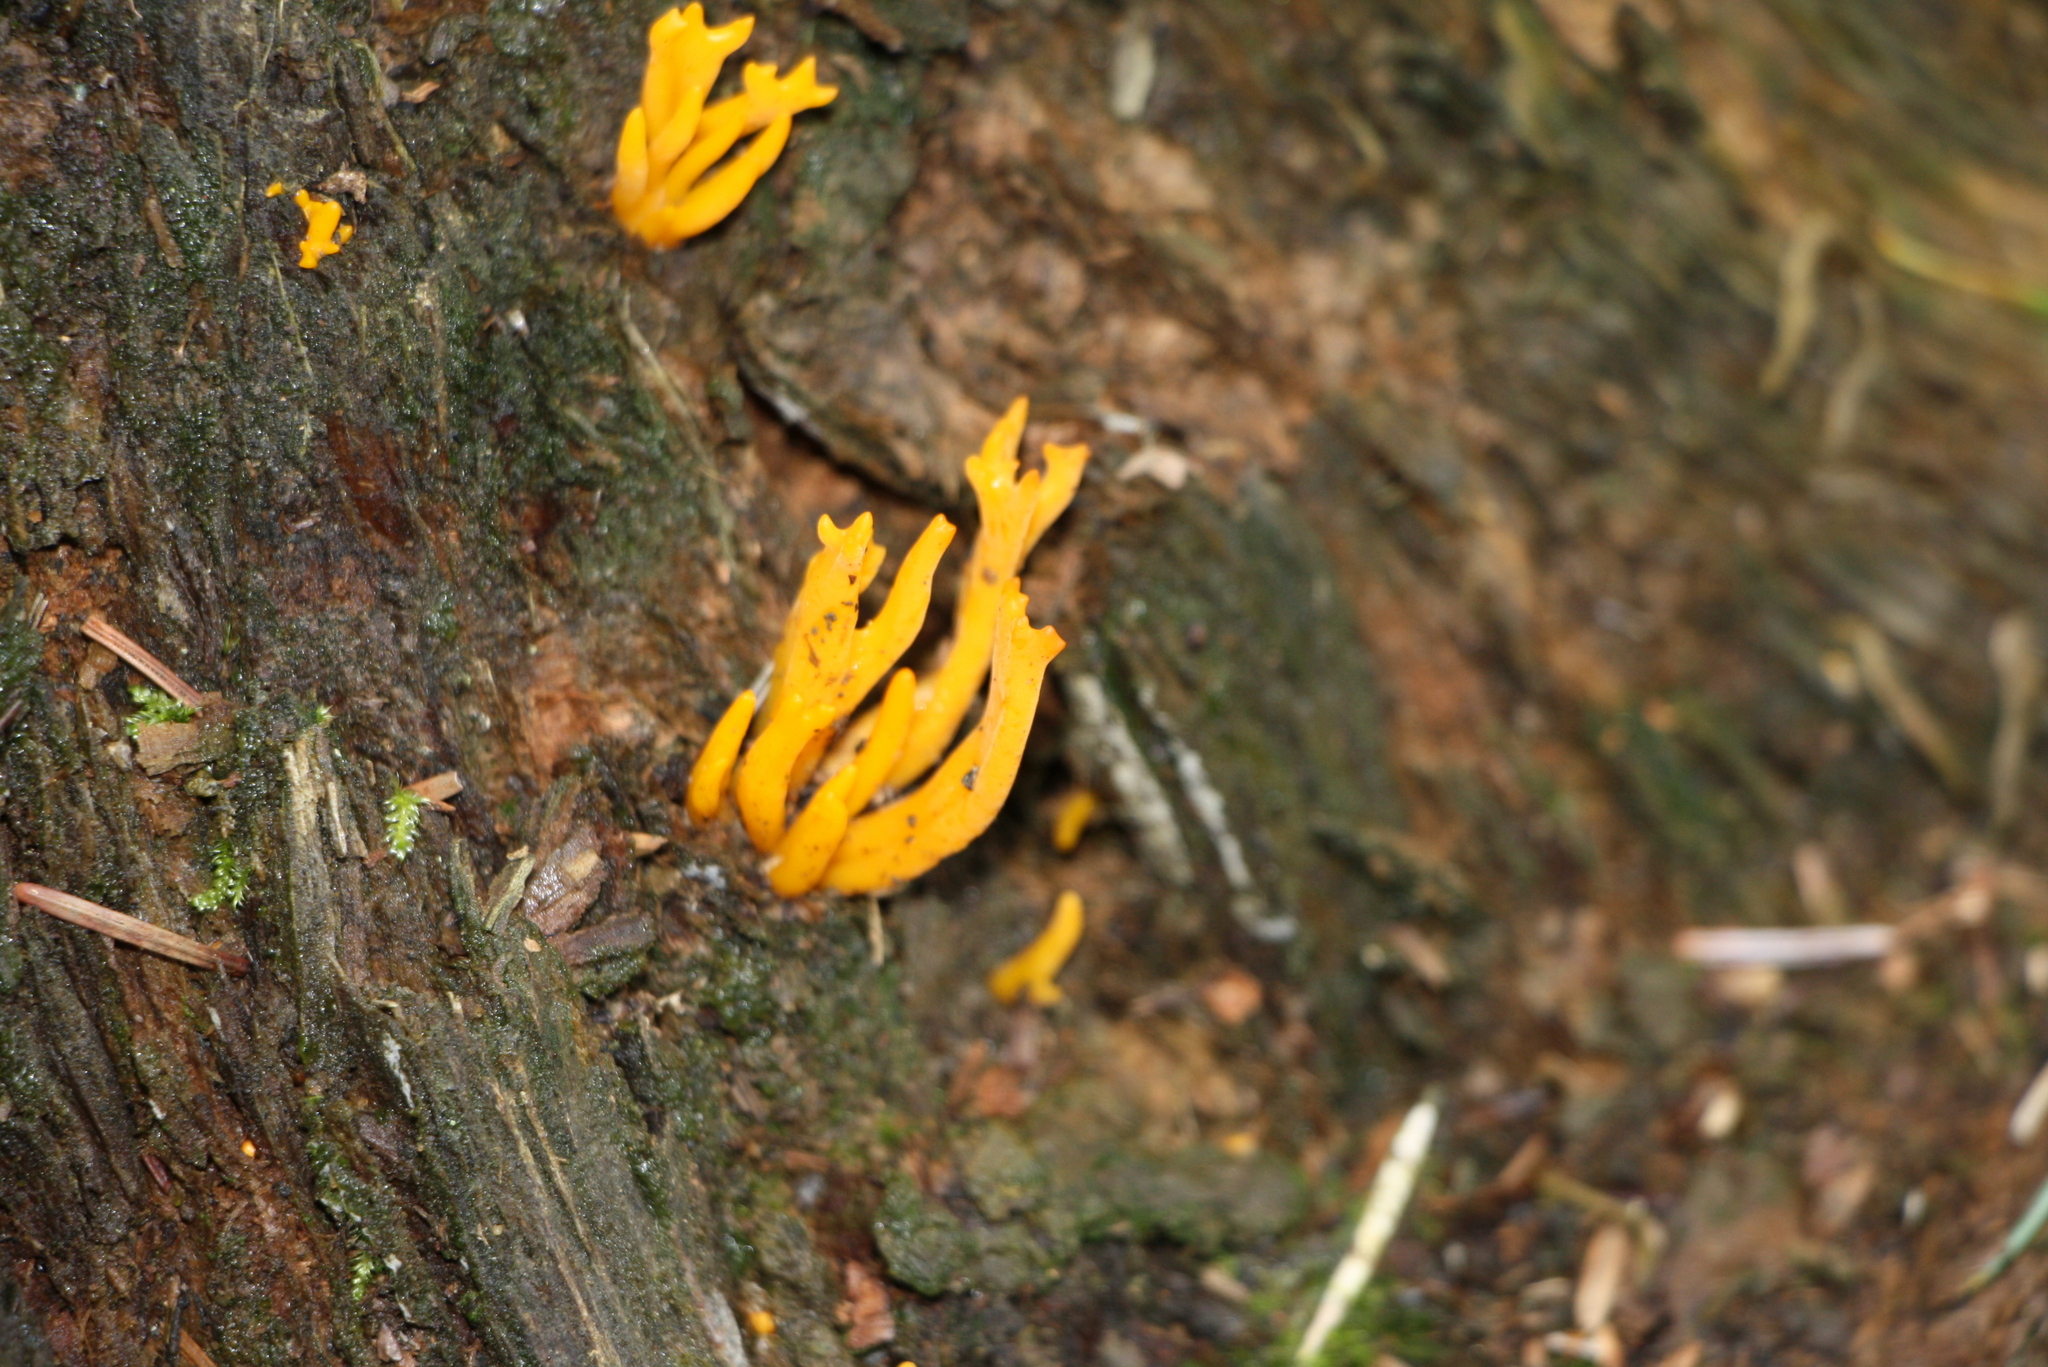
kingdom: Fungi
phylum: Basidiomycota
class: Dacrymycetes
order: Dacrymycetales
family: Dacrymycetaceae
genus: Calocera
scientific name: Calocera viscosa
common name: Yellow stagshorn
